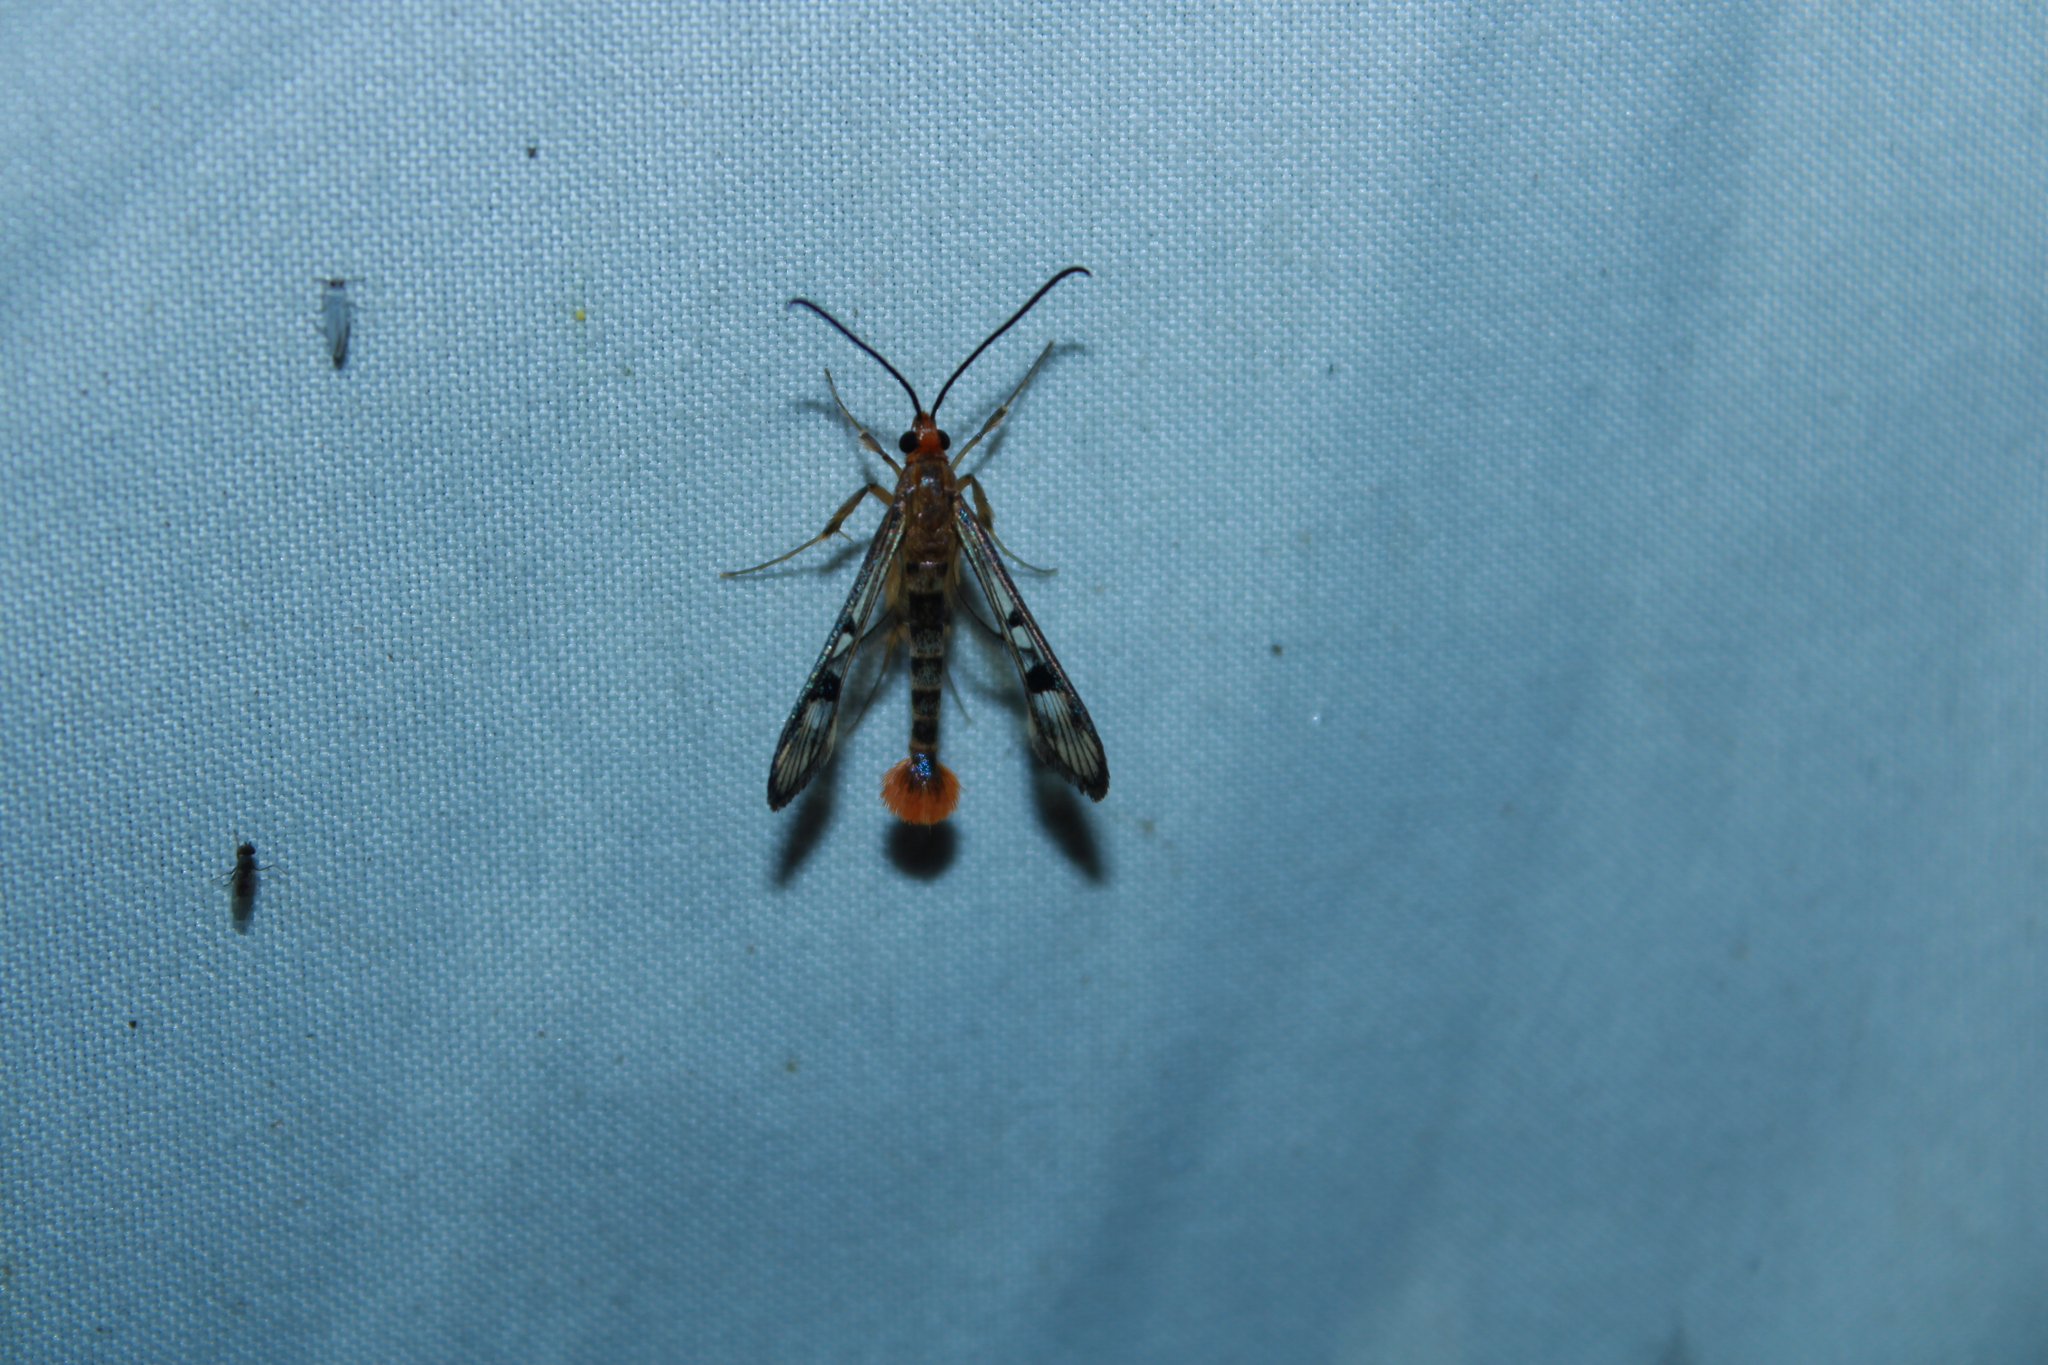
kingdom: Animalia
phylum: Arthropoda
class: Insecta
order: Lepidoptera
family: Sesiidae
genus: Synanthedon
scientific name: Synanthedon acerni
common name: Maple callus borer moth
